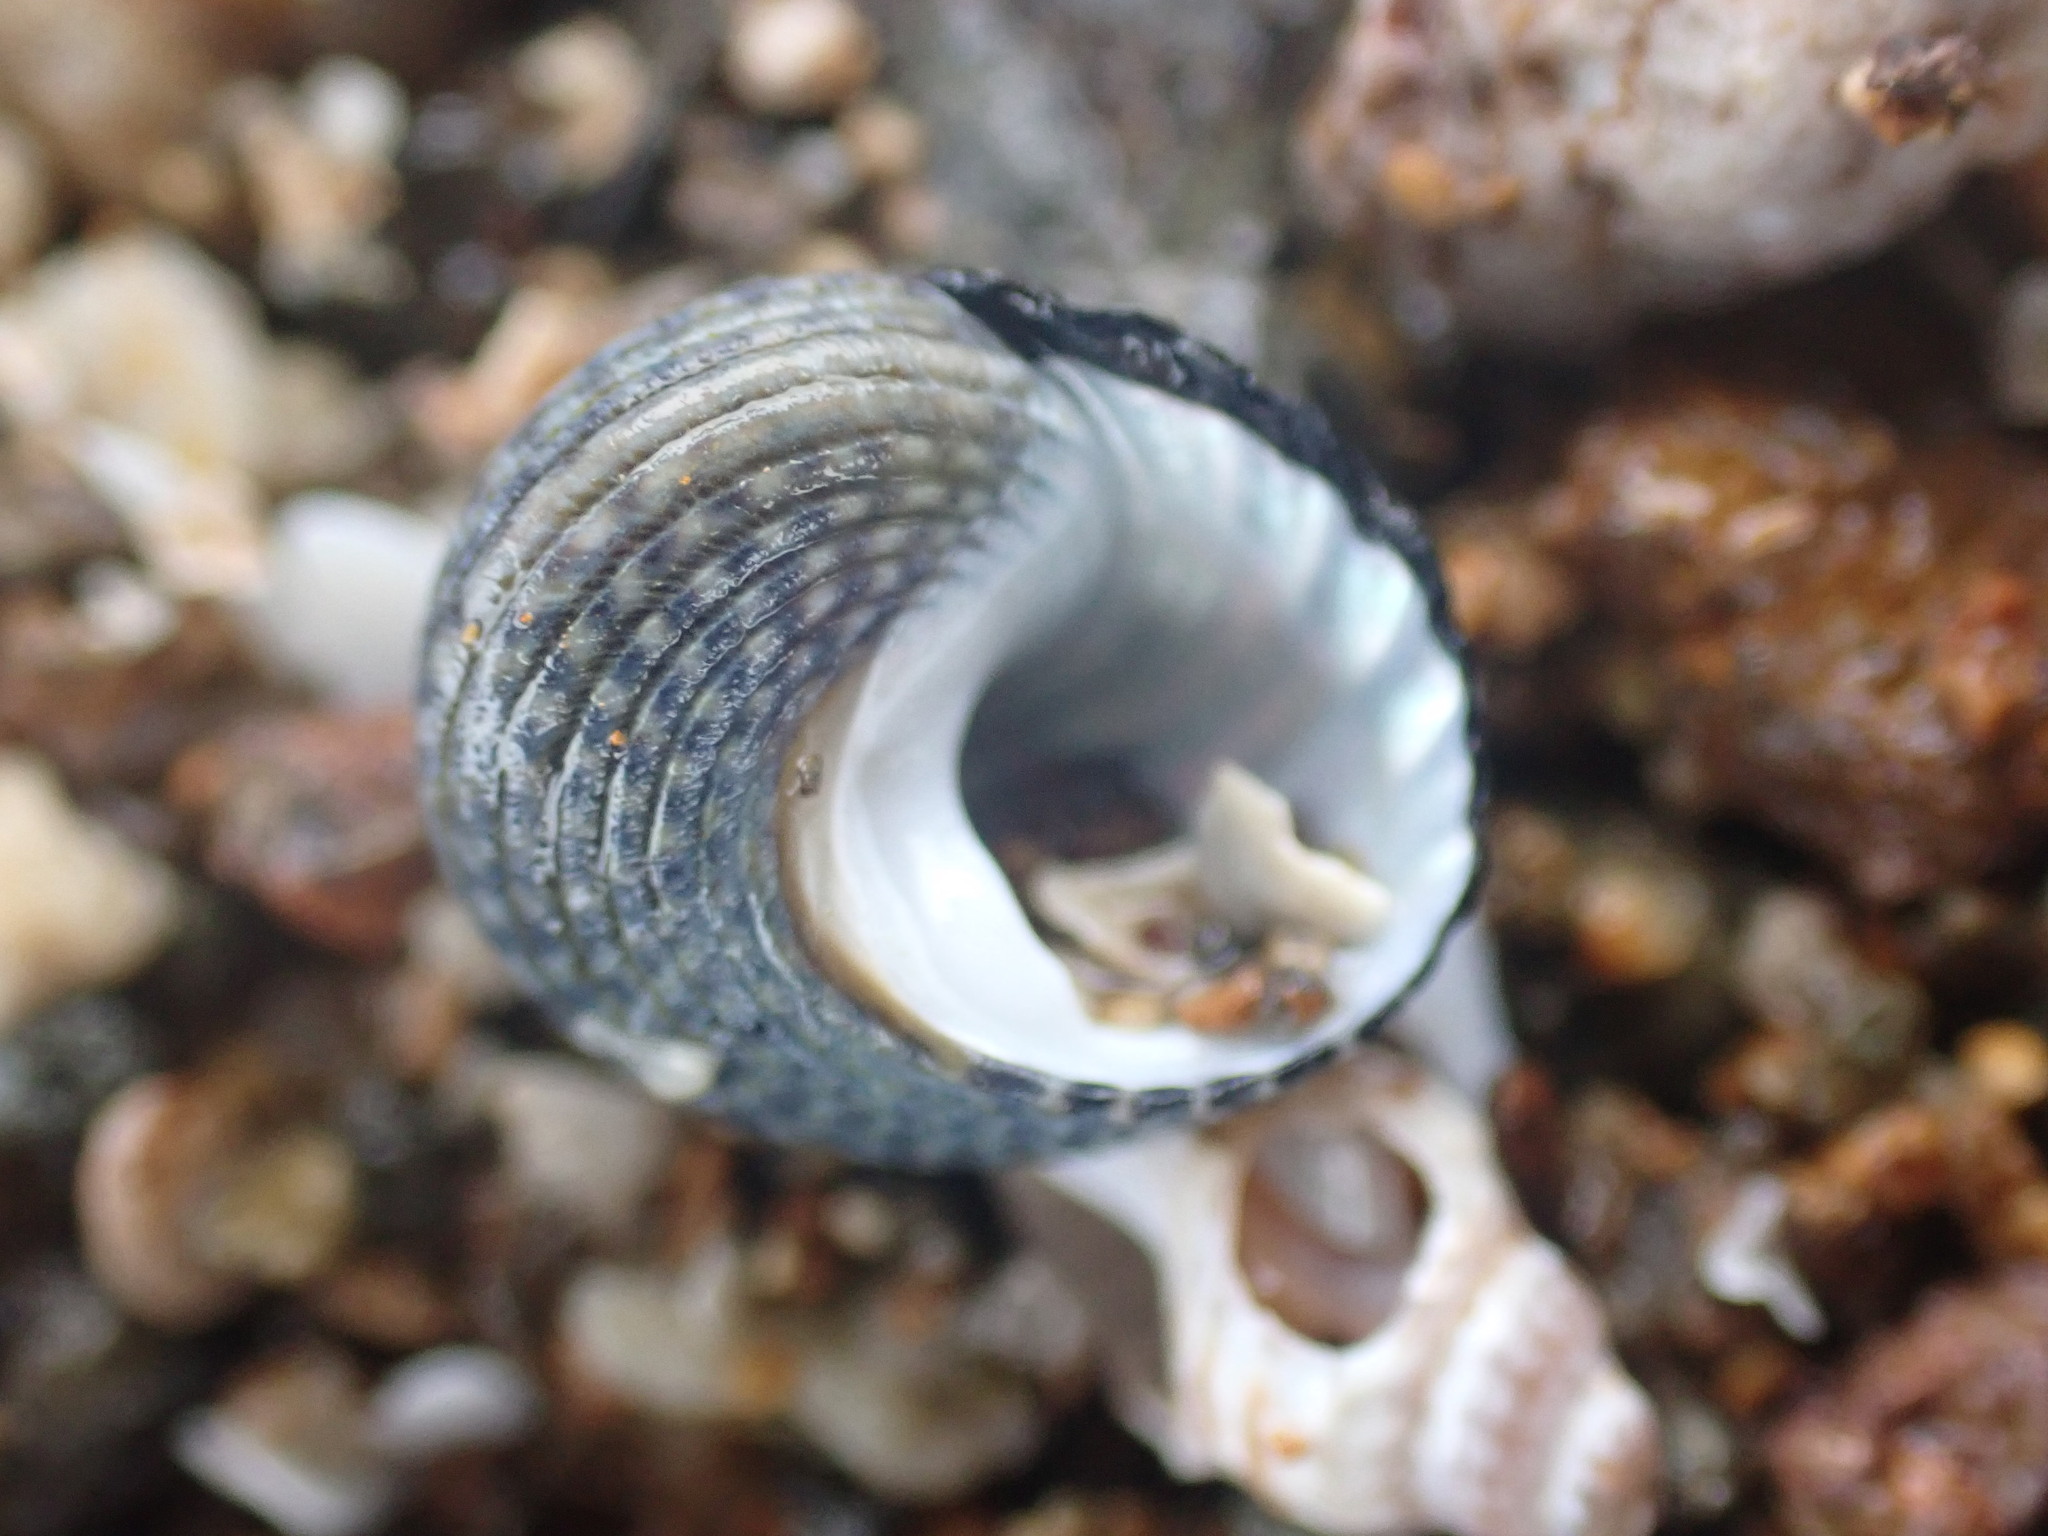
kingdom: Animalia
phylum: Mollusca
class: Gastropoda
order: Trochida
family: Trochidae
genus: Diloma
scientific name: Diloma aethiops
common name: Scorched monodont
